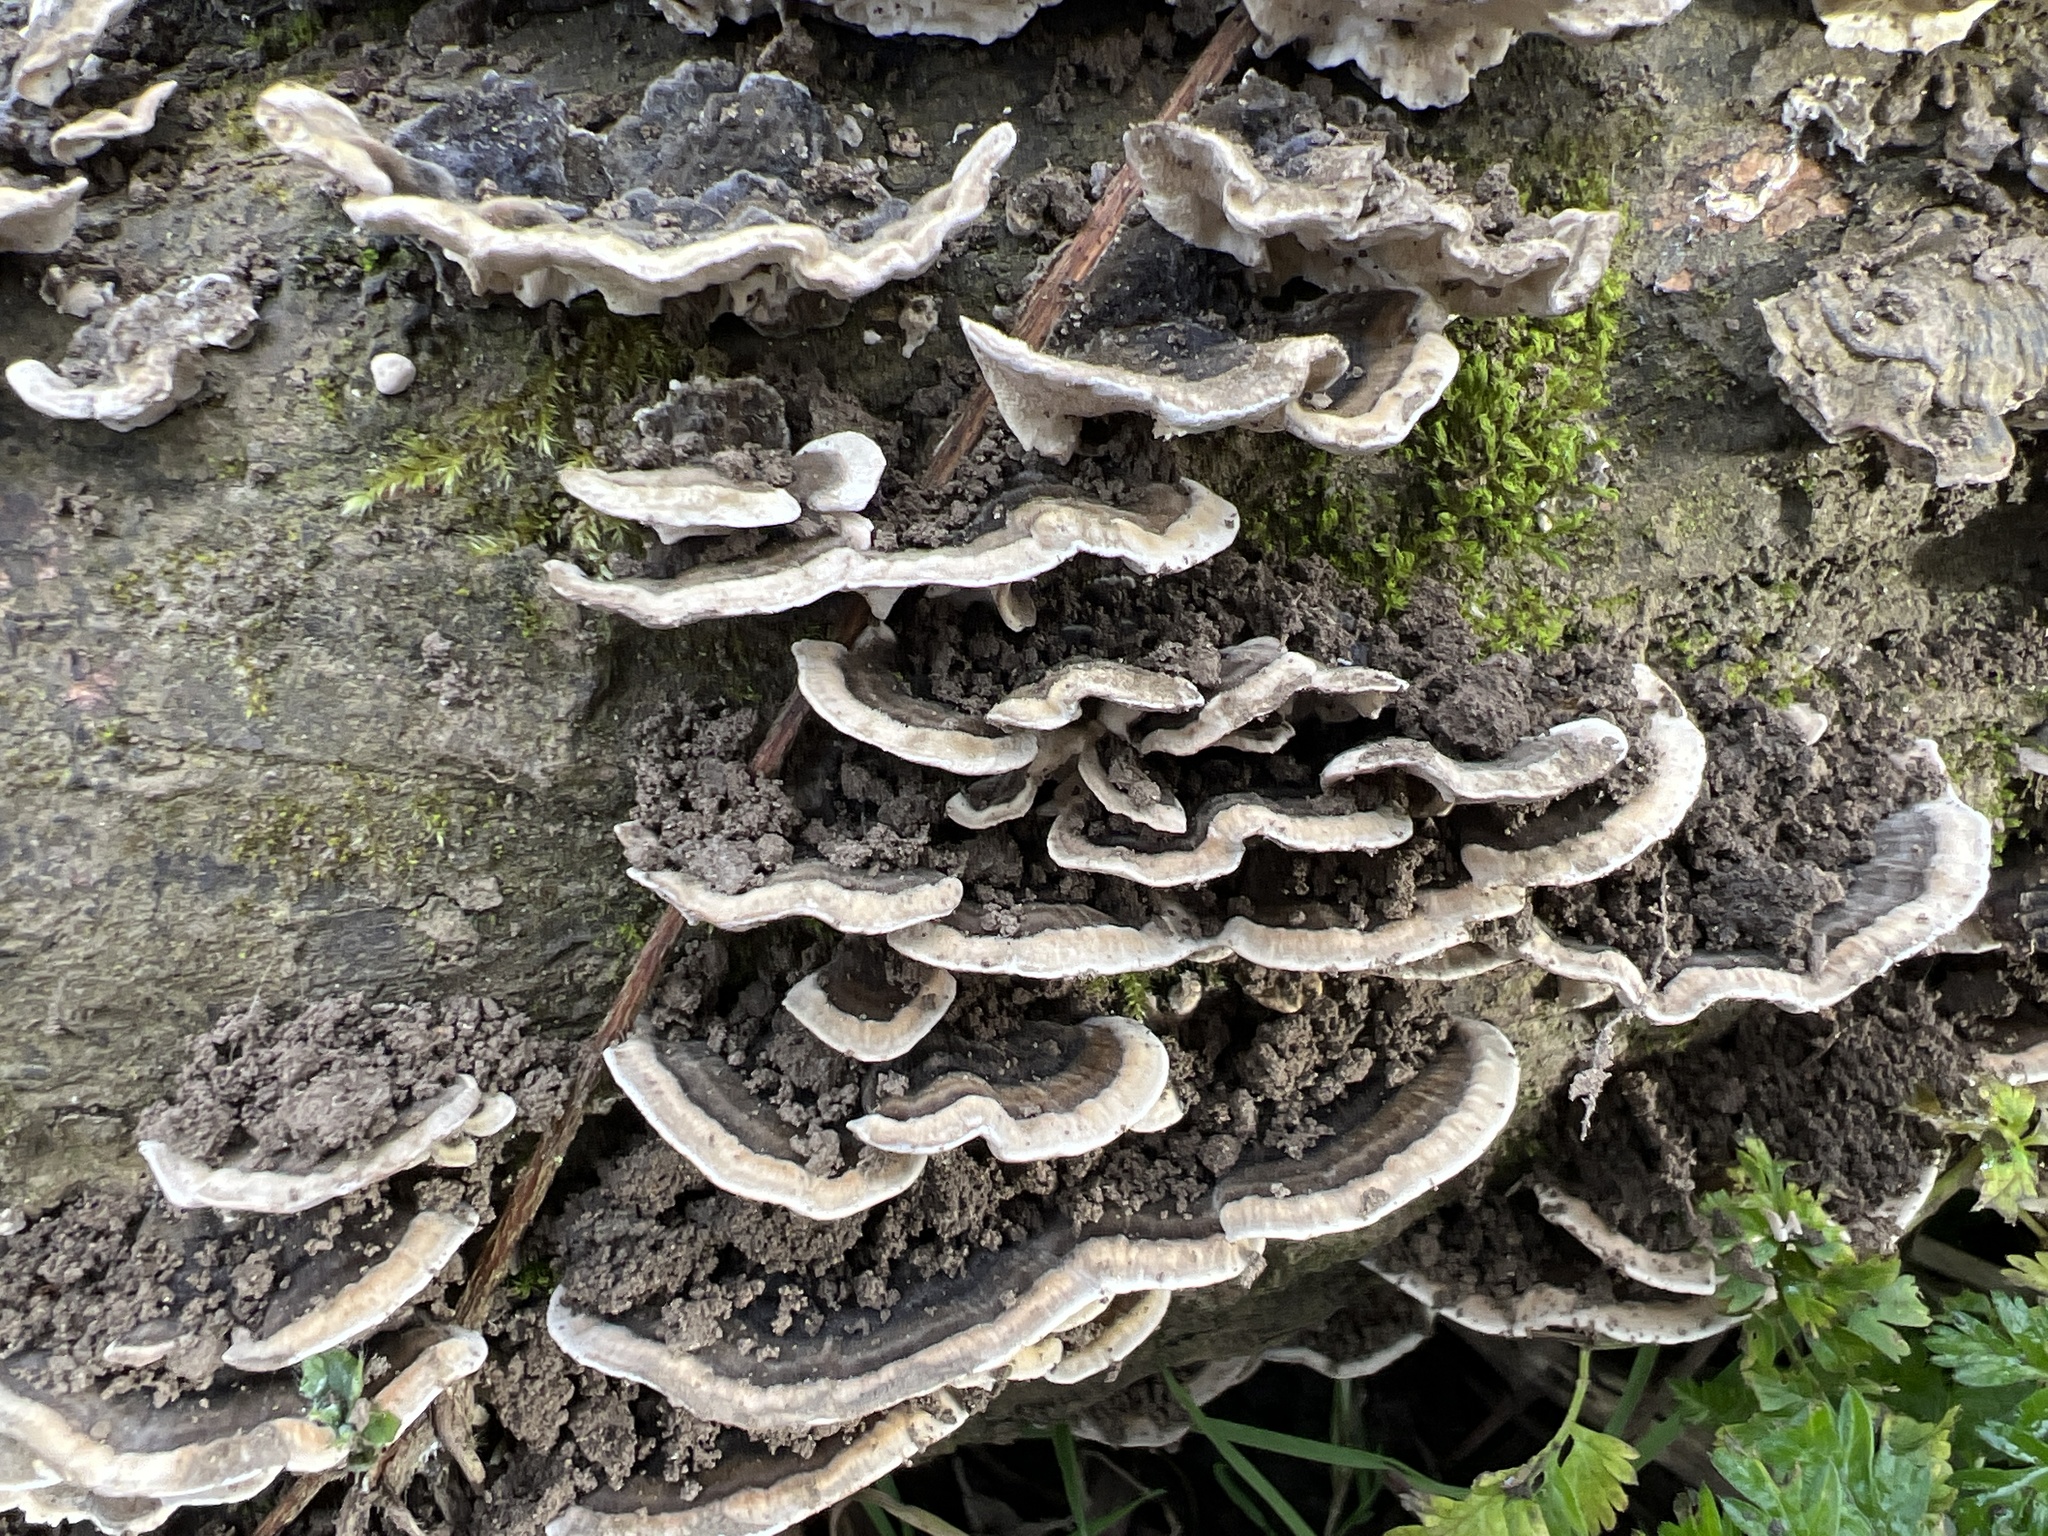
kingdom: Fungi
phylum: Basidiomycota
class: Agaricomycetes
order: Polyporales
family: Polyporaceae
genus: Trametes
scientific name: Trametes versicolor
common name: Turkeytail
